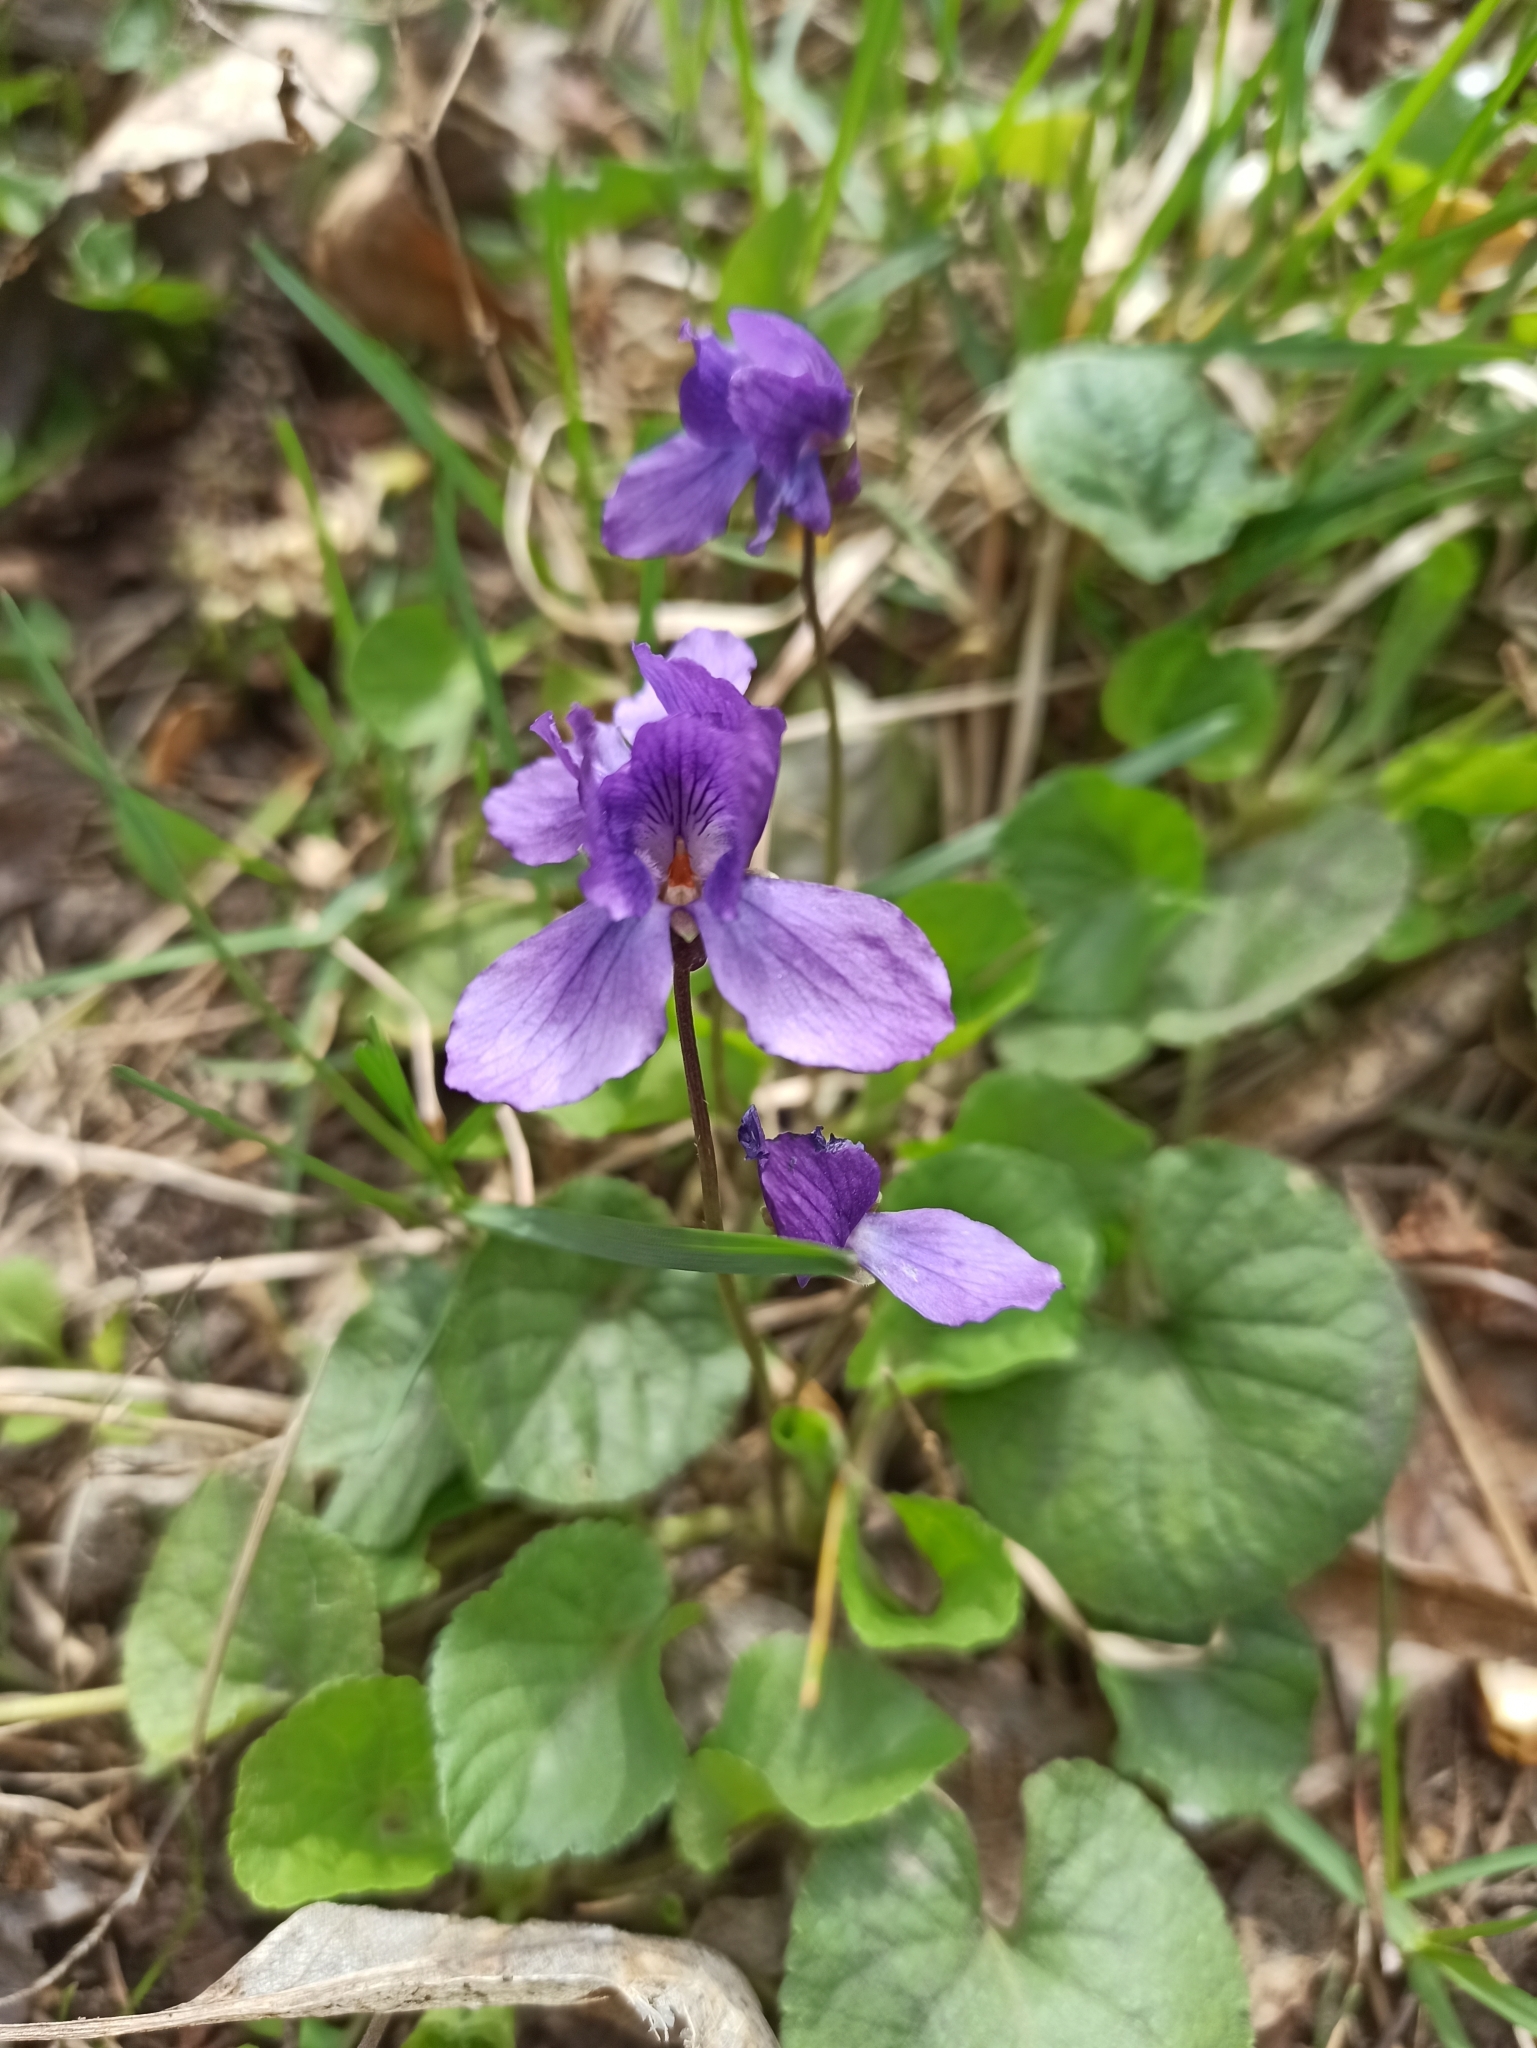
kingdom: Plantae
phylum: Tracheophyta
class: Magnoliopsida
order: Malpighiales
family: Violaceae
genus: Viola
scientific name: Viola odorata
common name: Sweet violet
